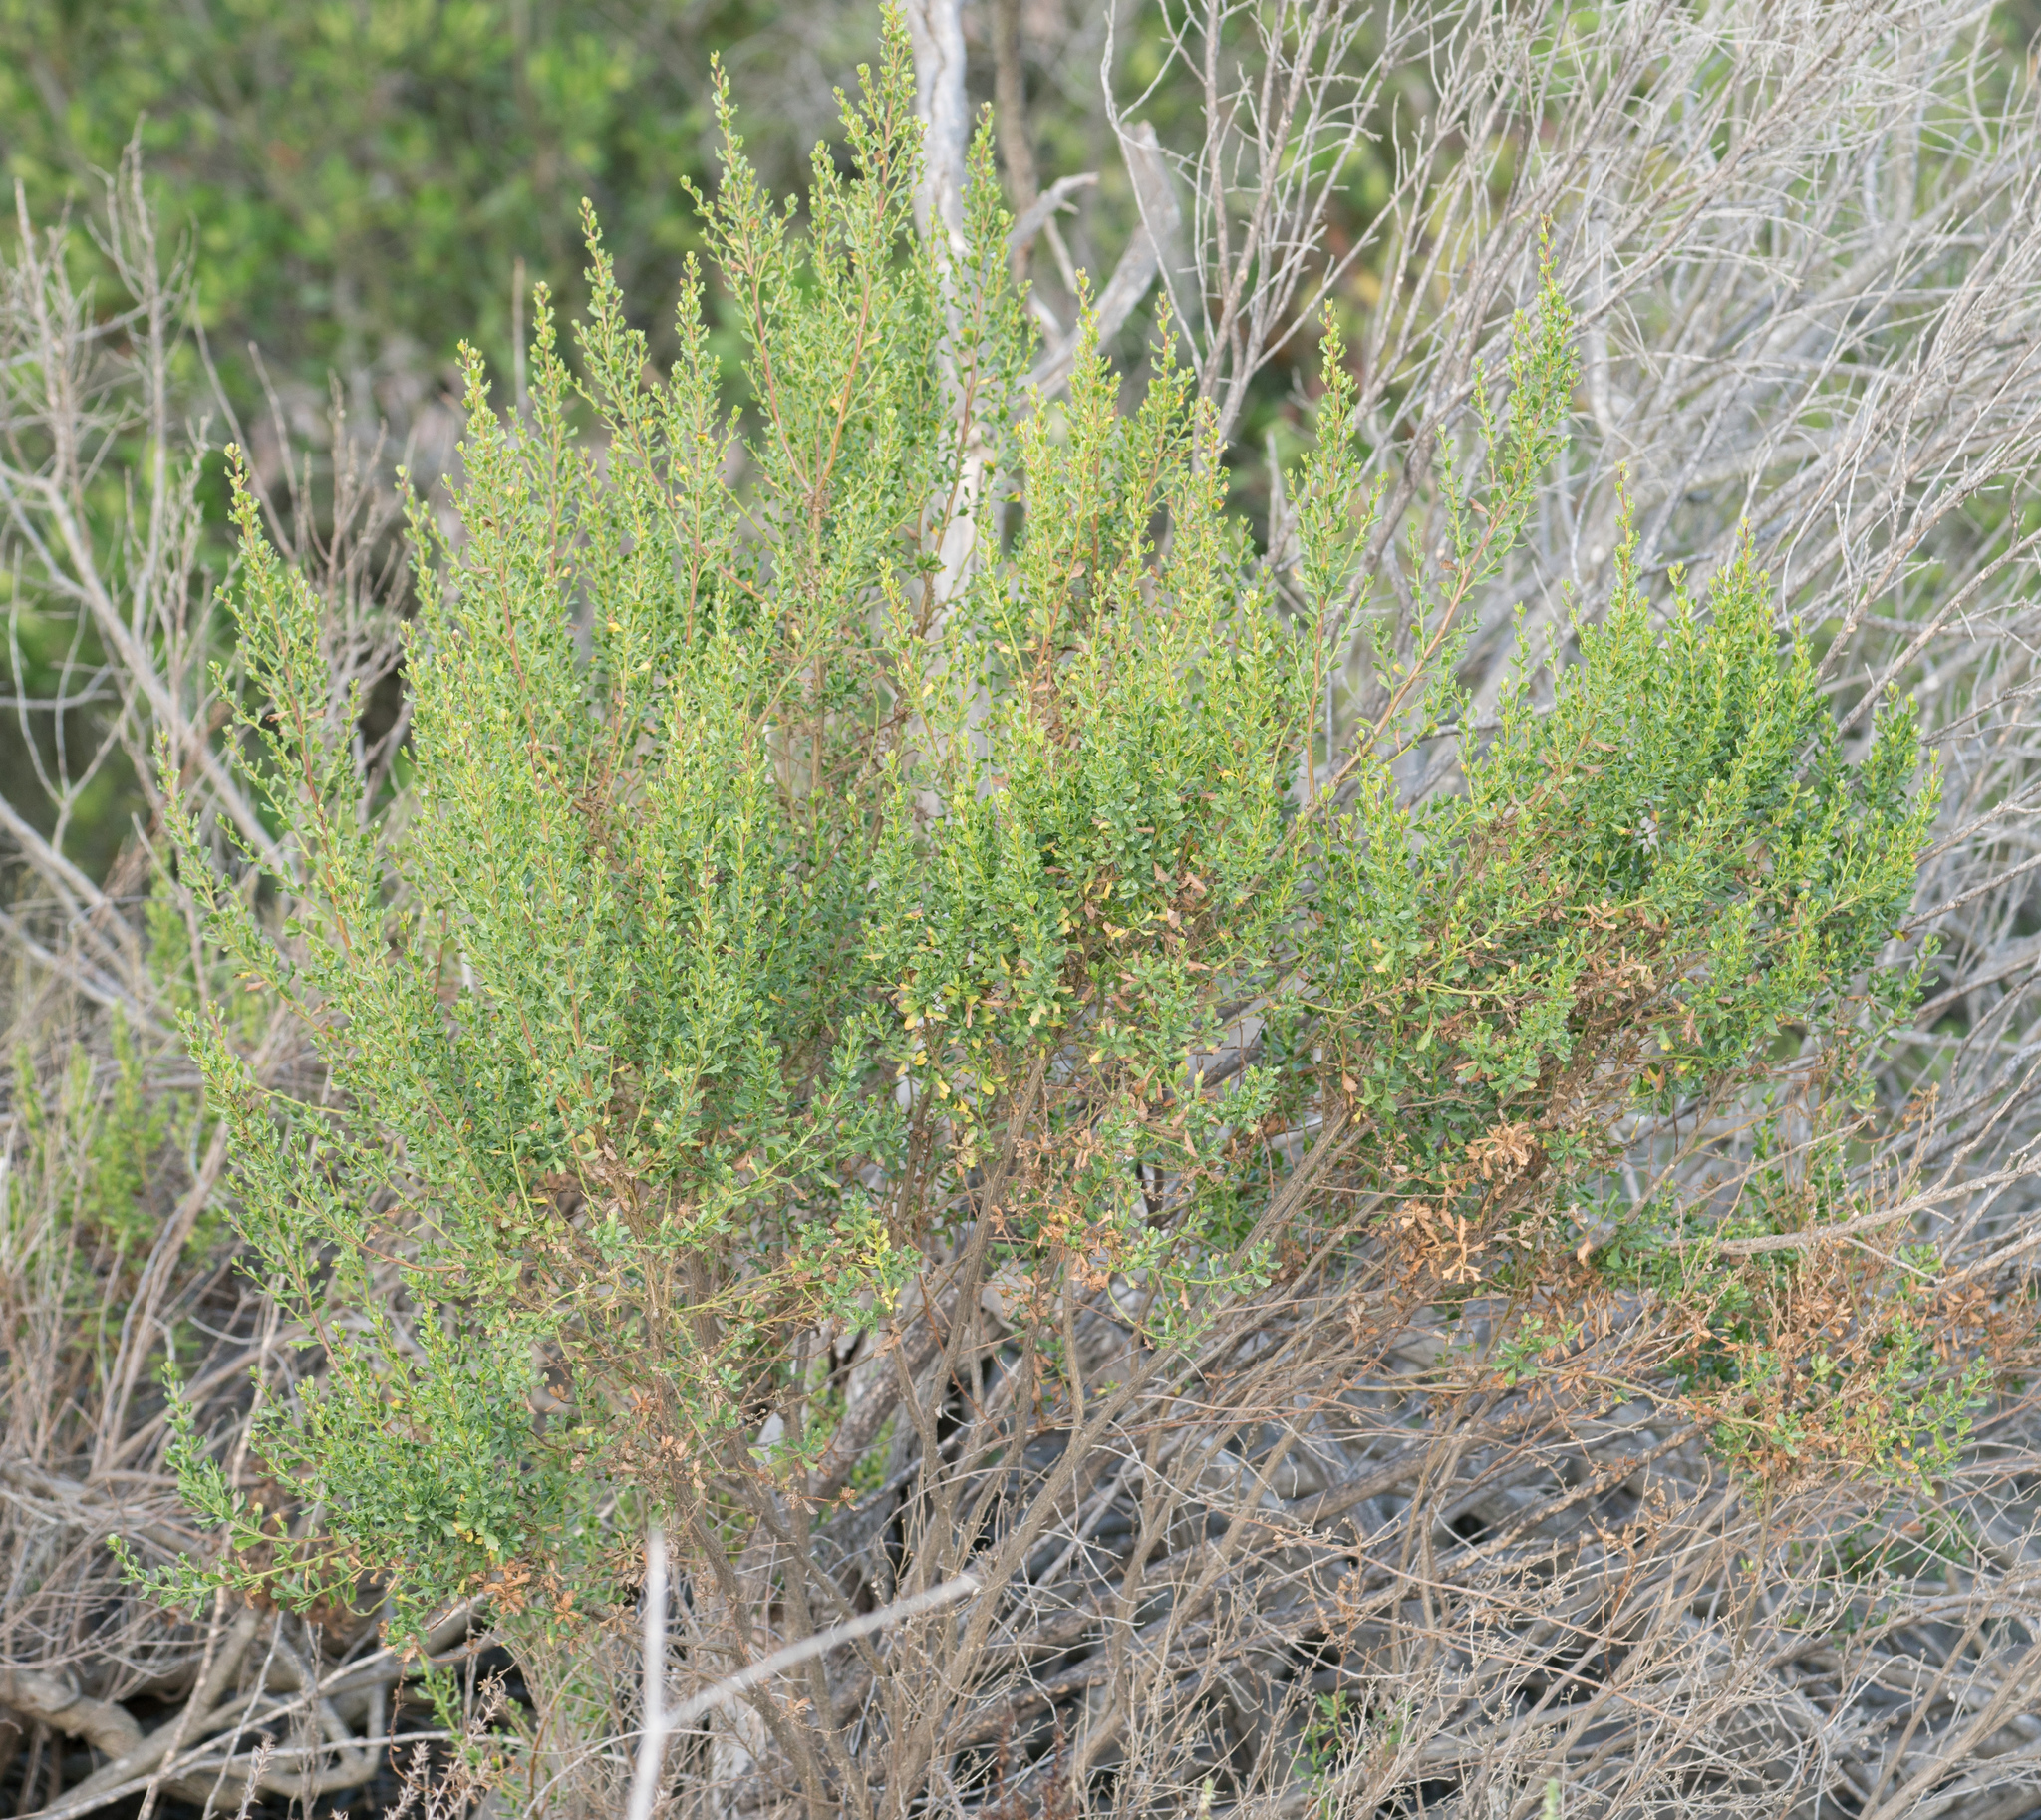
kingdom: Plantae
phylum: Tracheophyta
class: Magnoliopsida
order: Asterales
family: Asteraceae
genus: Baccharis
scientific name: Baccharis pilularis
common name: Coyotebrush
